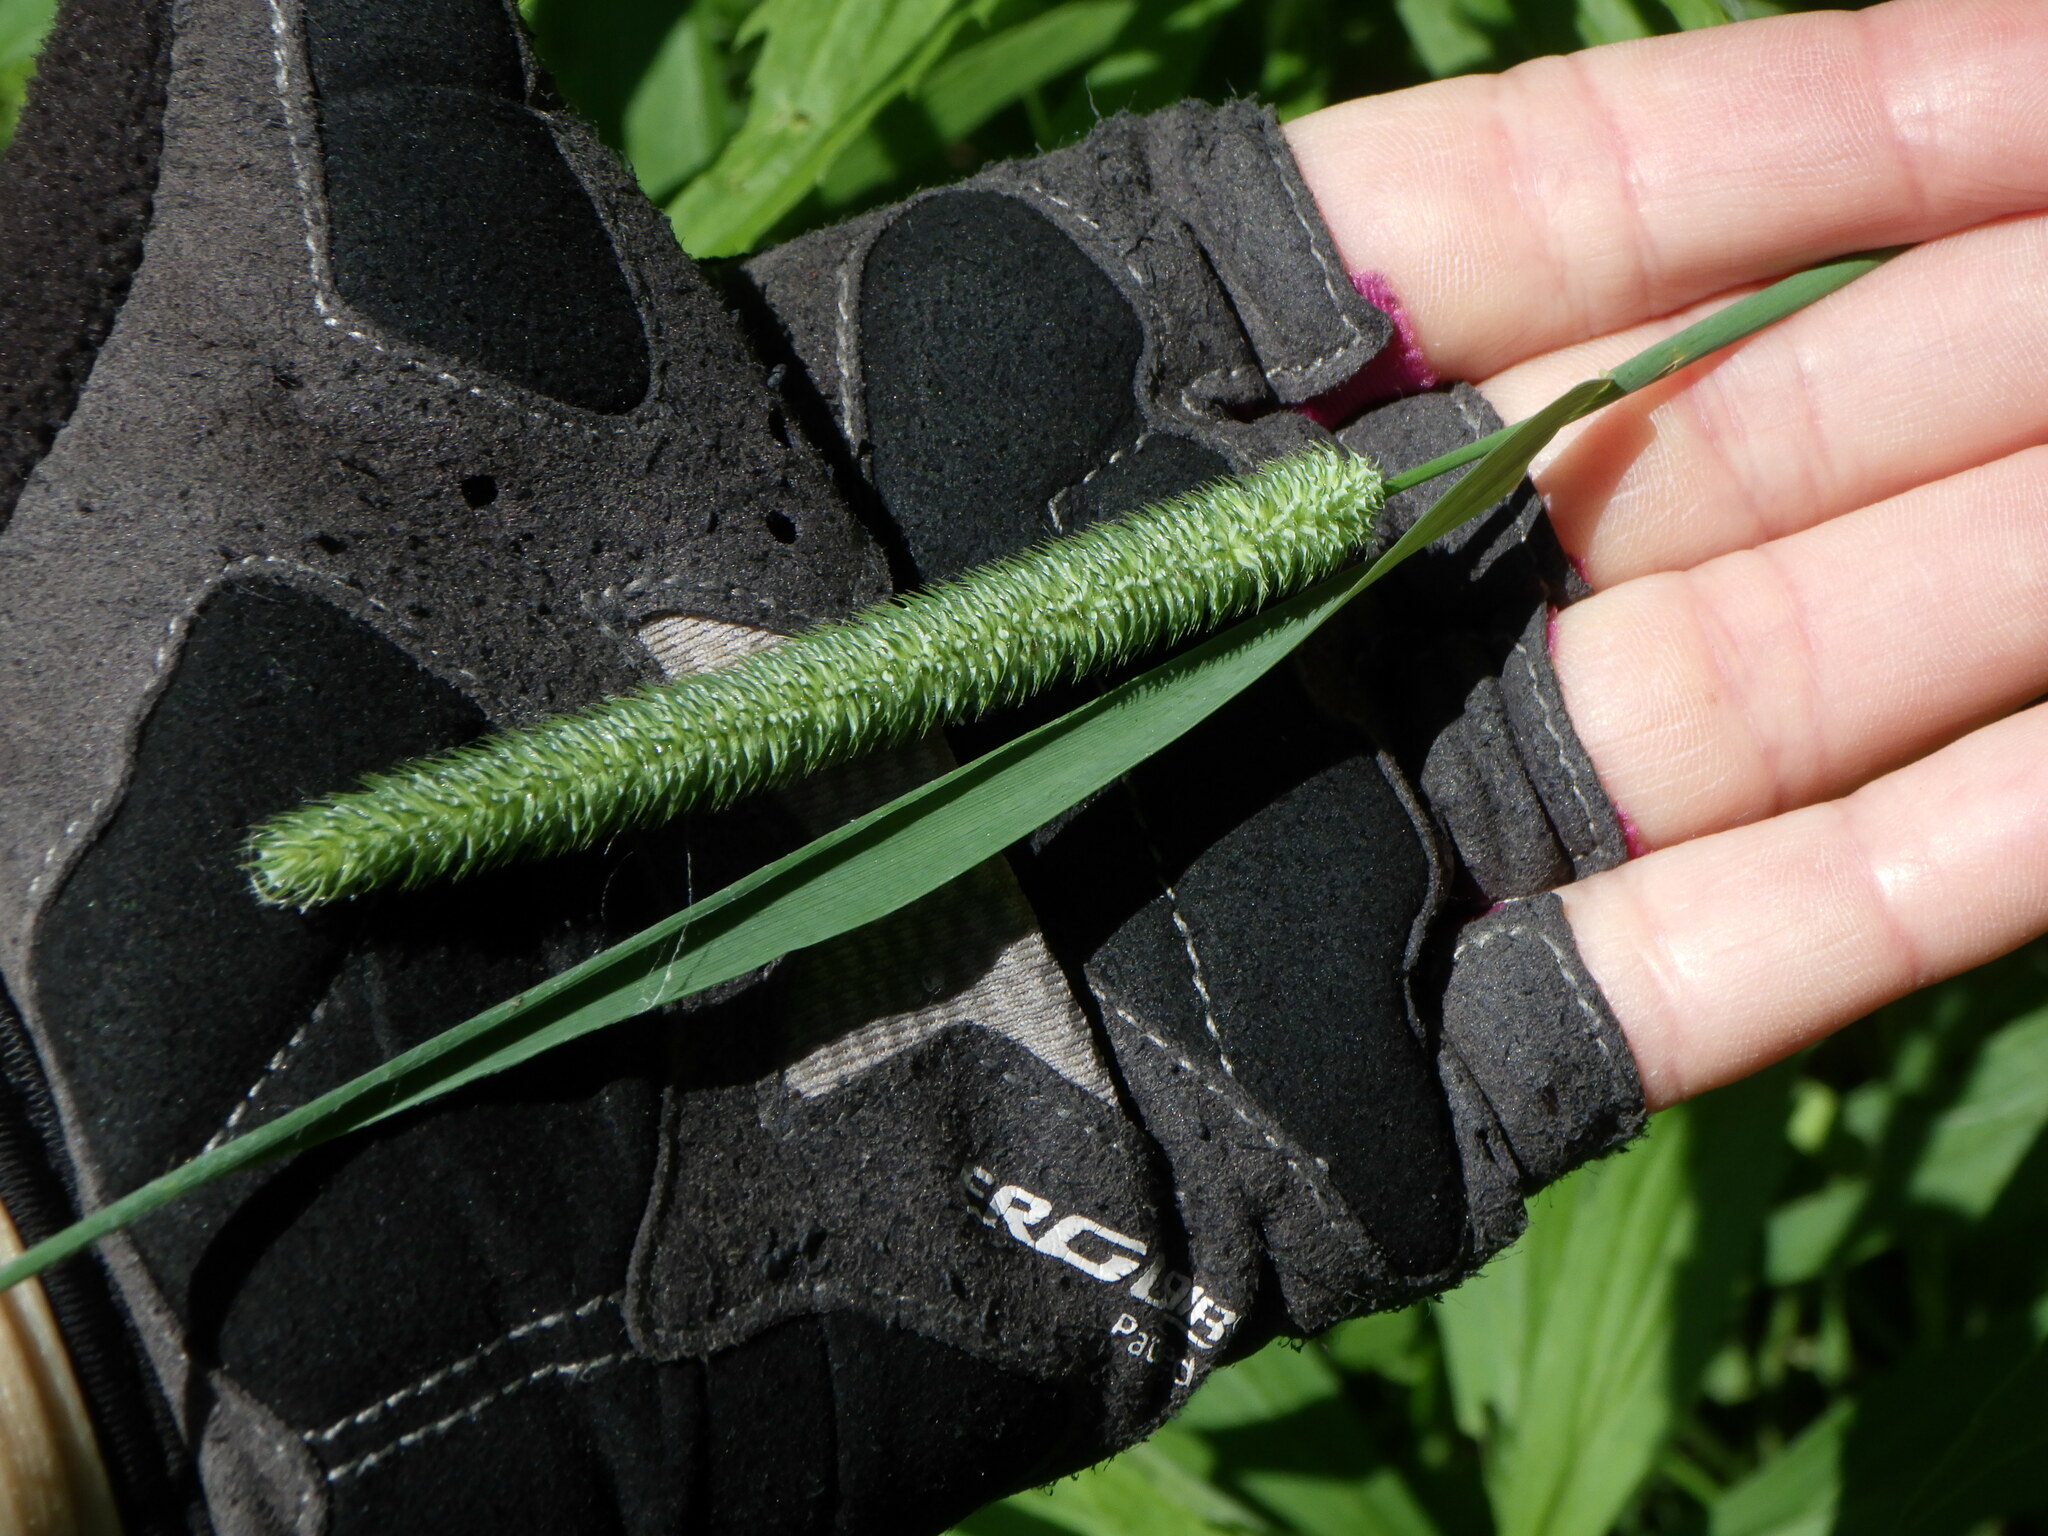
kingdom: Plantae
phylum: Tracheophyta
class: Liliopsida
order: Poales
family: Poaceae
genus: Phleum
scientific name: Phleum pratense
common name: Timothy grass
